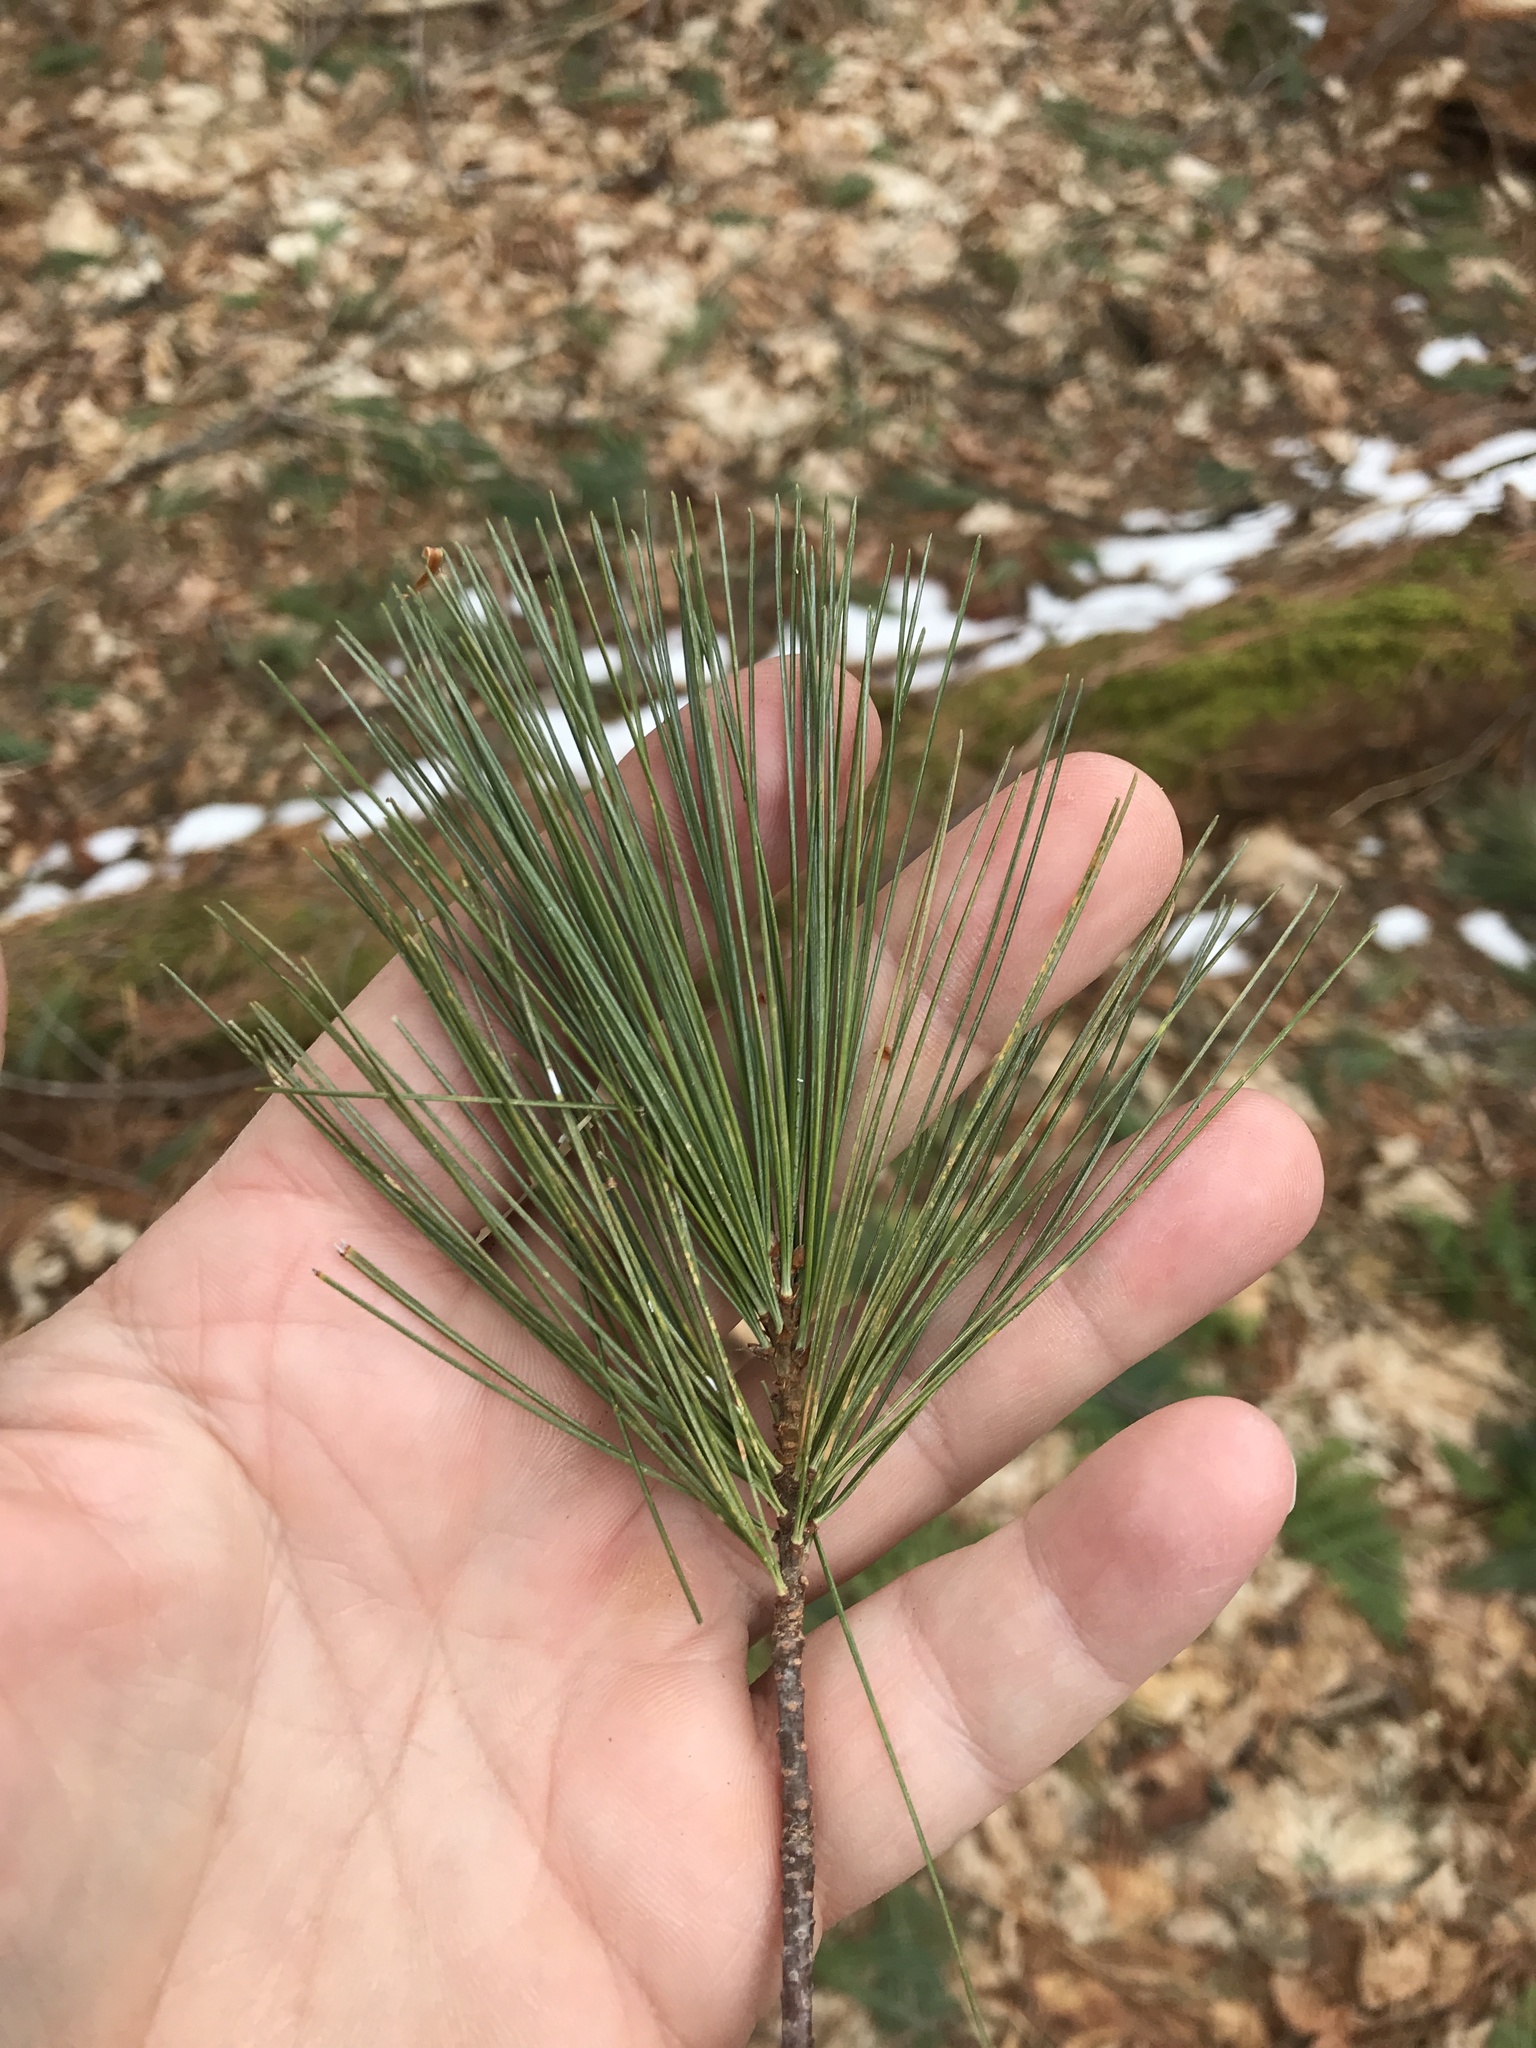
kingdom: Plantae
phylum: Tracheophyta
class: Pinopsida
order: Pinales
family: Pinaceae
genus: Pinus
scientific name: Pinus strobus
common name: Weymouth pine
